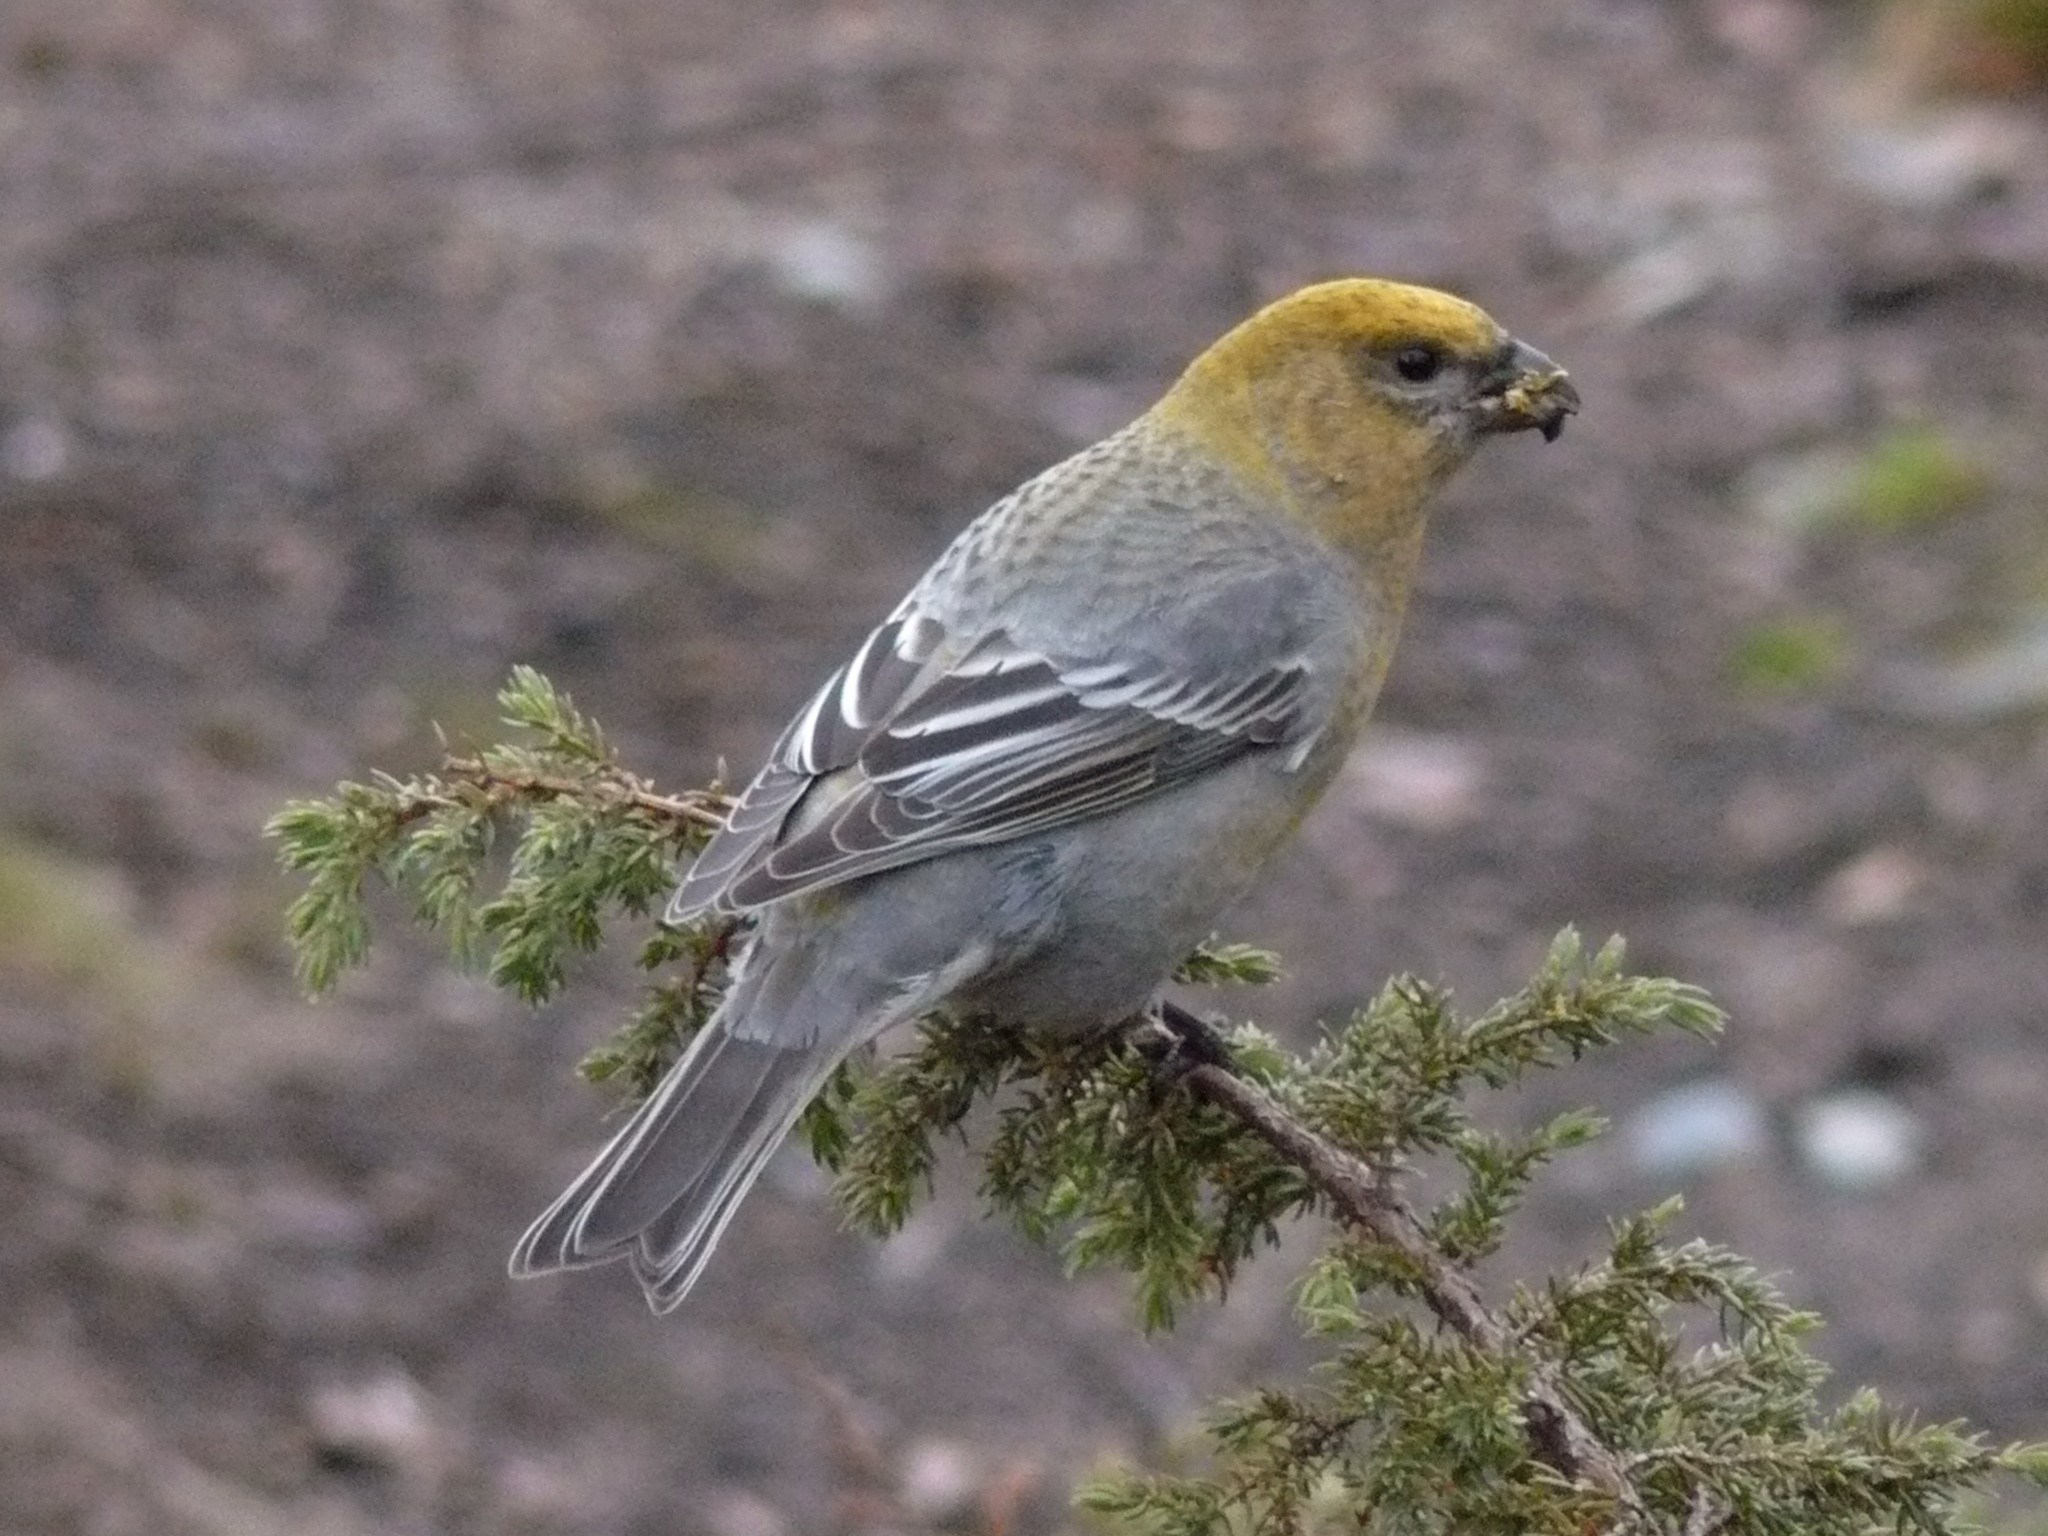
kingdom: Animalia
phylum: Chordata
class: Aves
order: Passeriformes
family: Fringillidae
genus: Pinicola
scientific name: Pinicola enucleator
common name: Pine grosbeak
